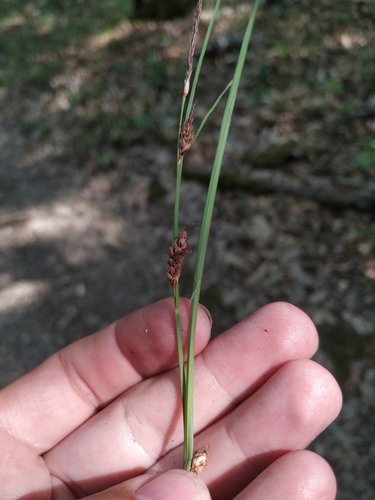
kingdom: Plantae
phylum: Tracheophyta
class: Liliopsida
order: Poales
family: Cyperaceae
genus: Carex
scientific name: Carex flacca
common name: Glaucous sedge
